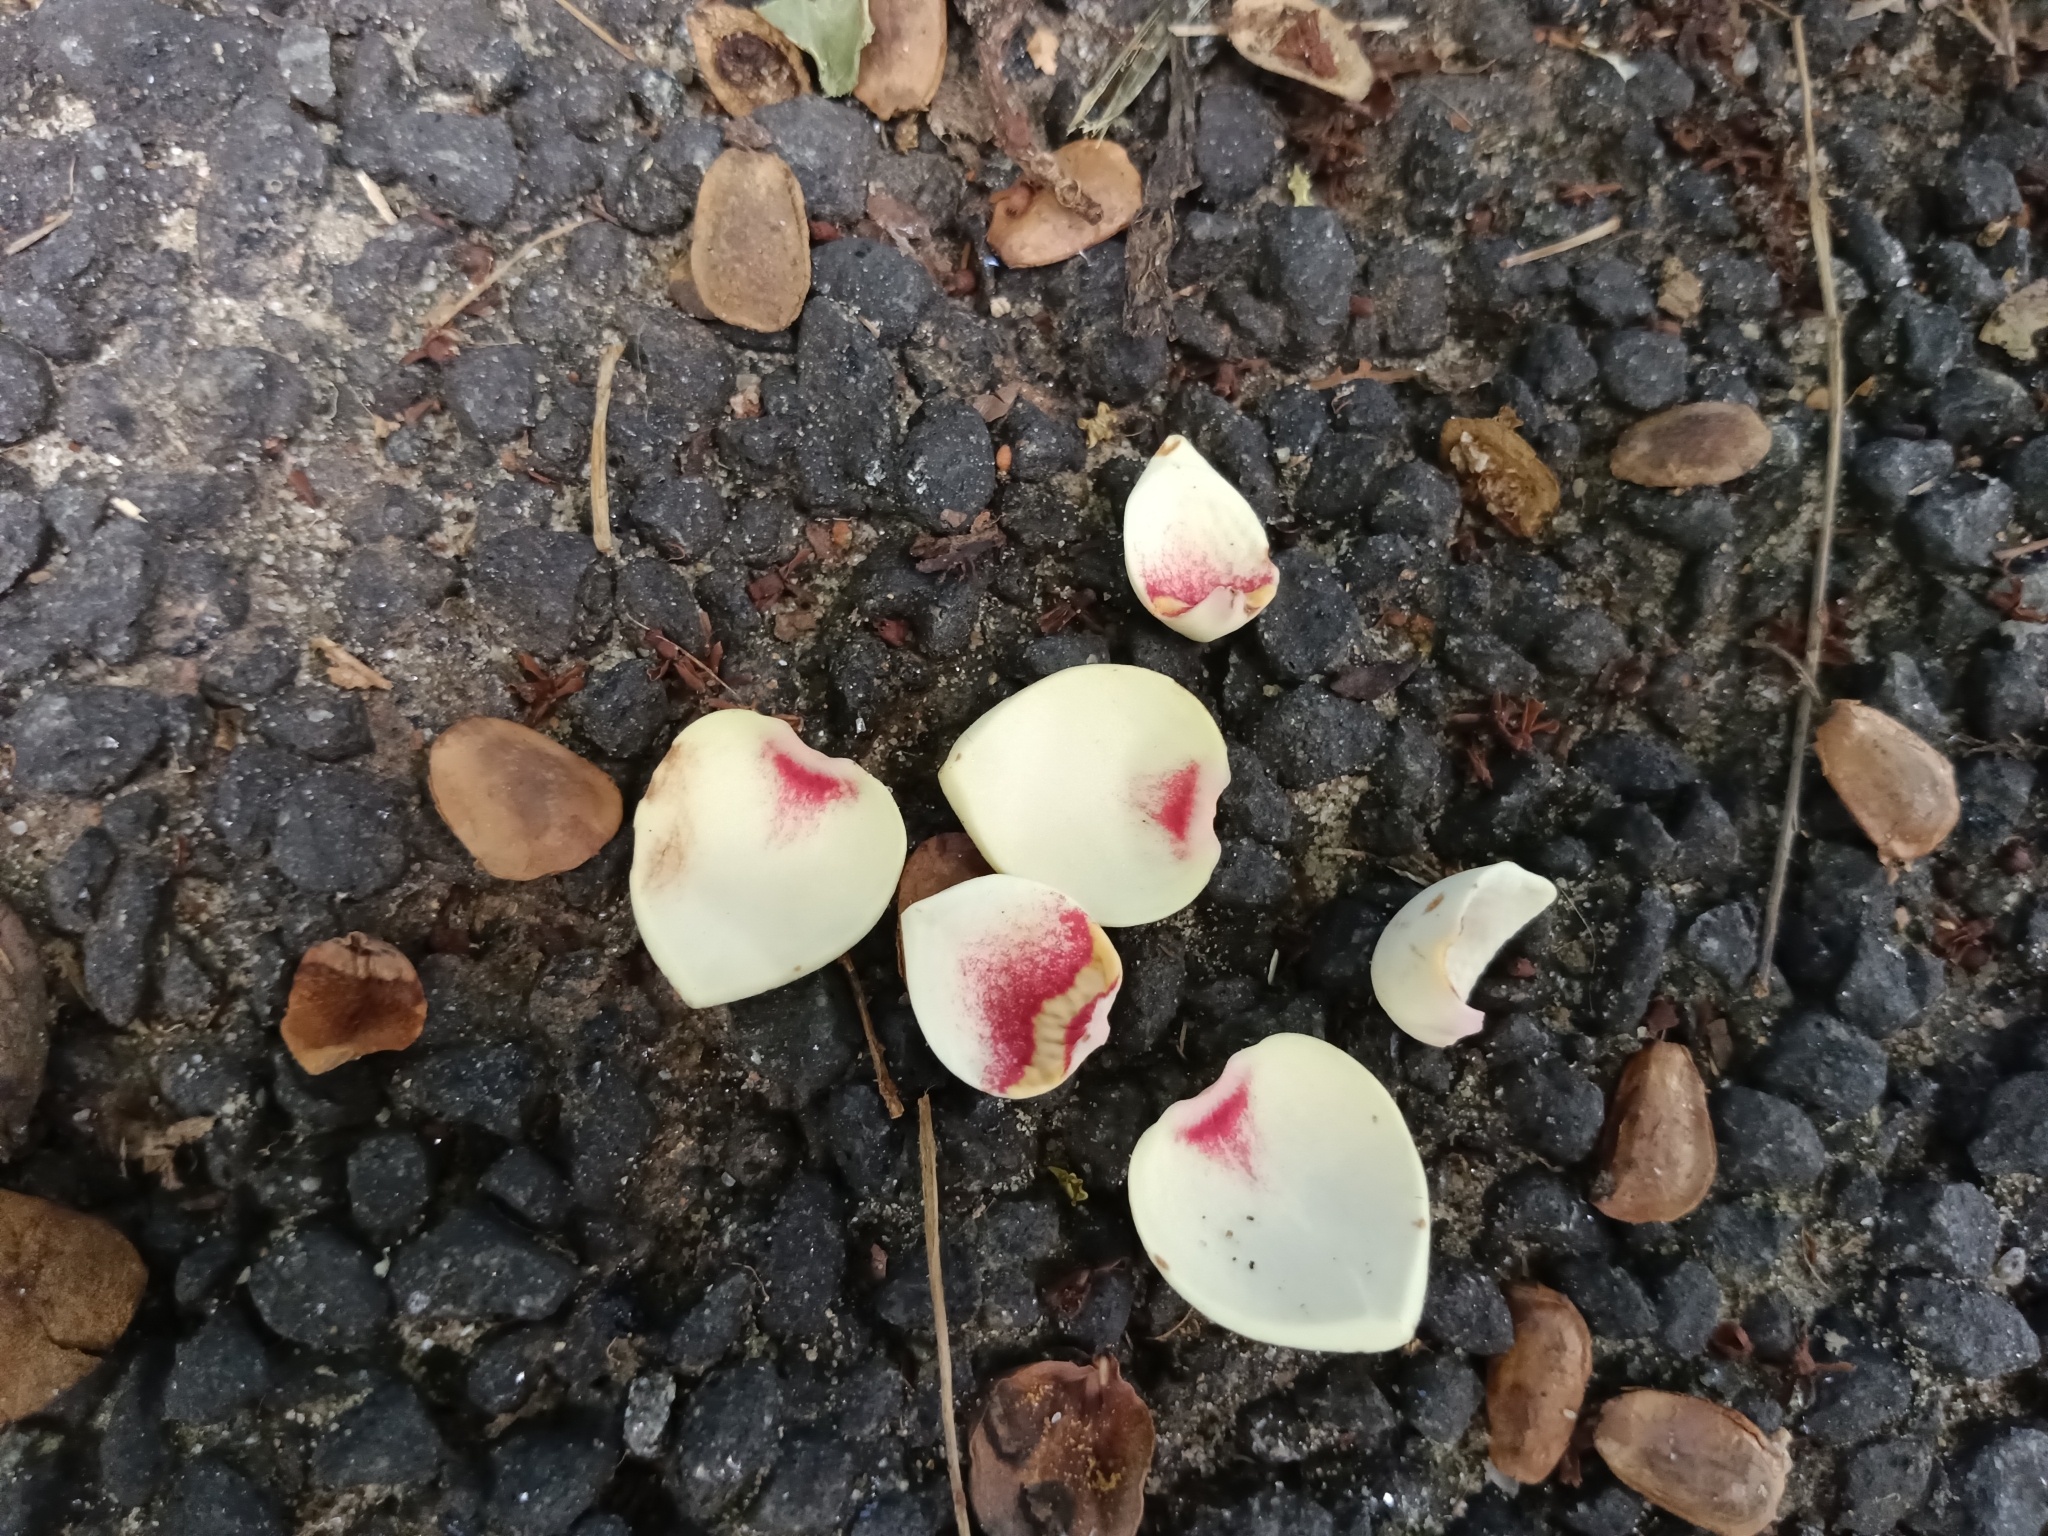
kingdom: Plantae
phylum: Tracheophyta
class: Magnoliopsida
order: Magnoliales
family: Annonaceae
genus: Annona
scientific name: Annona glabra
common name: Monkey apple
